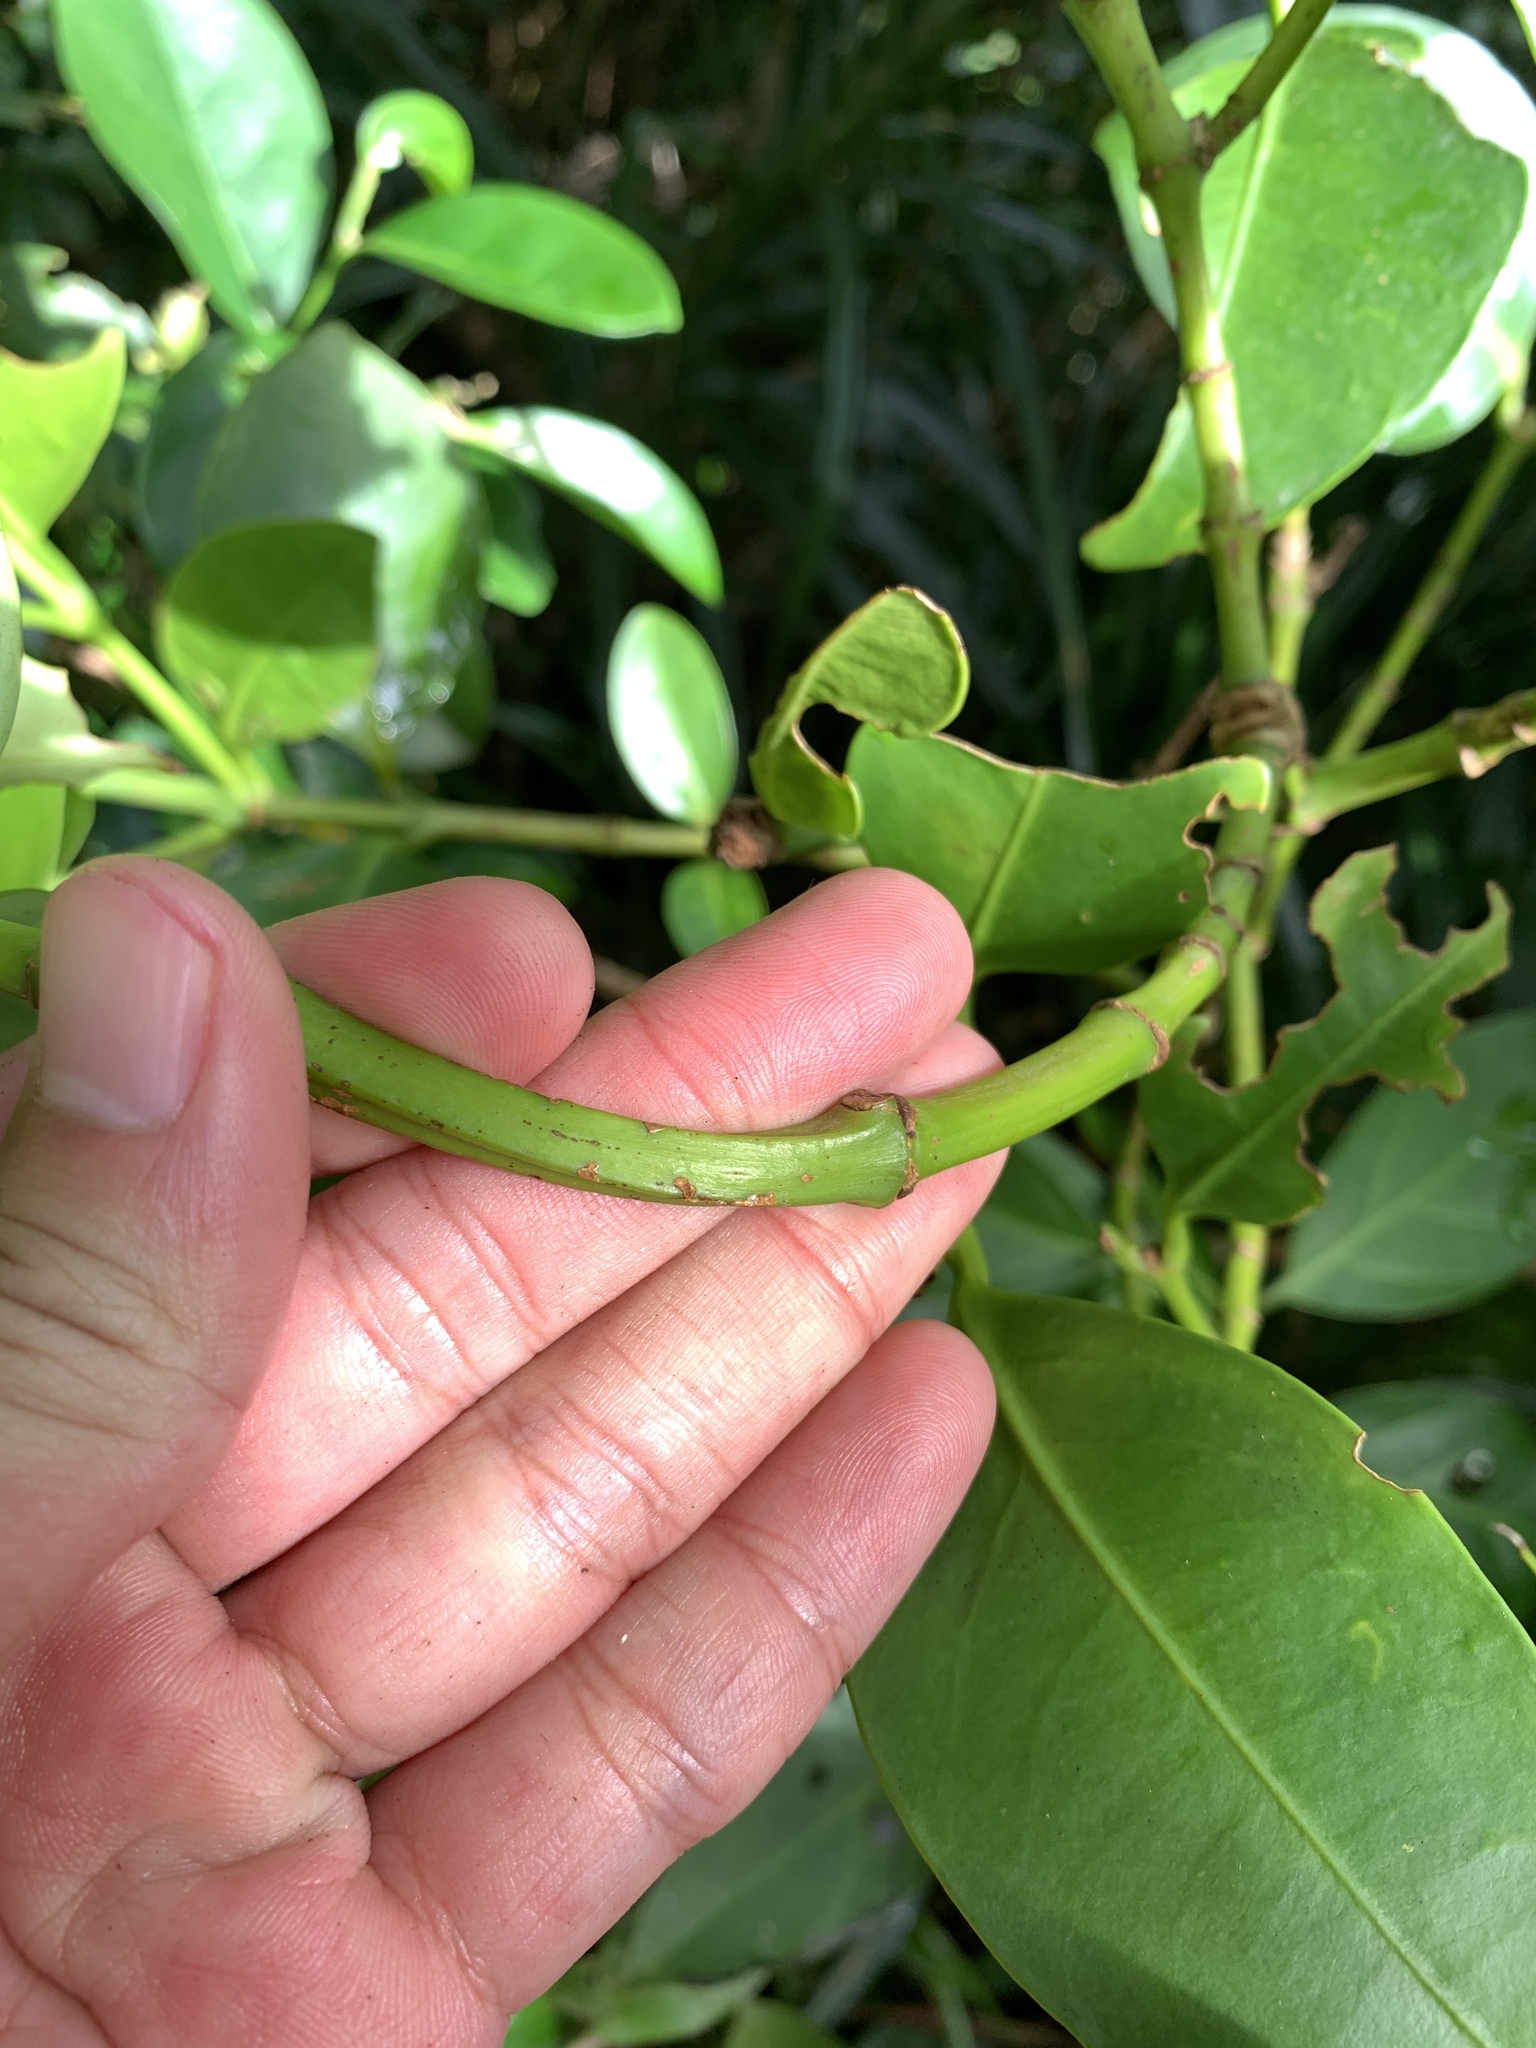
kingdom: Plantae
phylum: Tracheophyta
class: Magnoliopsida
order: Malpighiales
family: Clusiaceae
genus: Garcinia
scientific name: Garcinia linii
